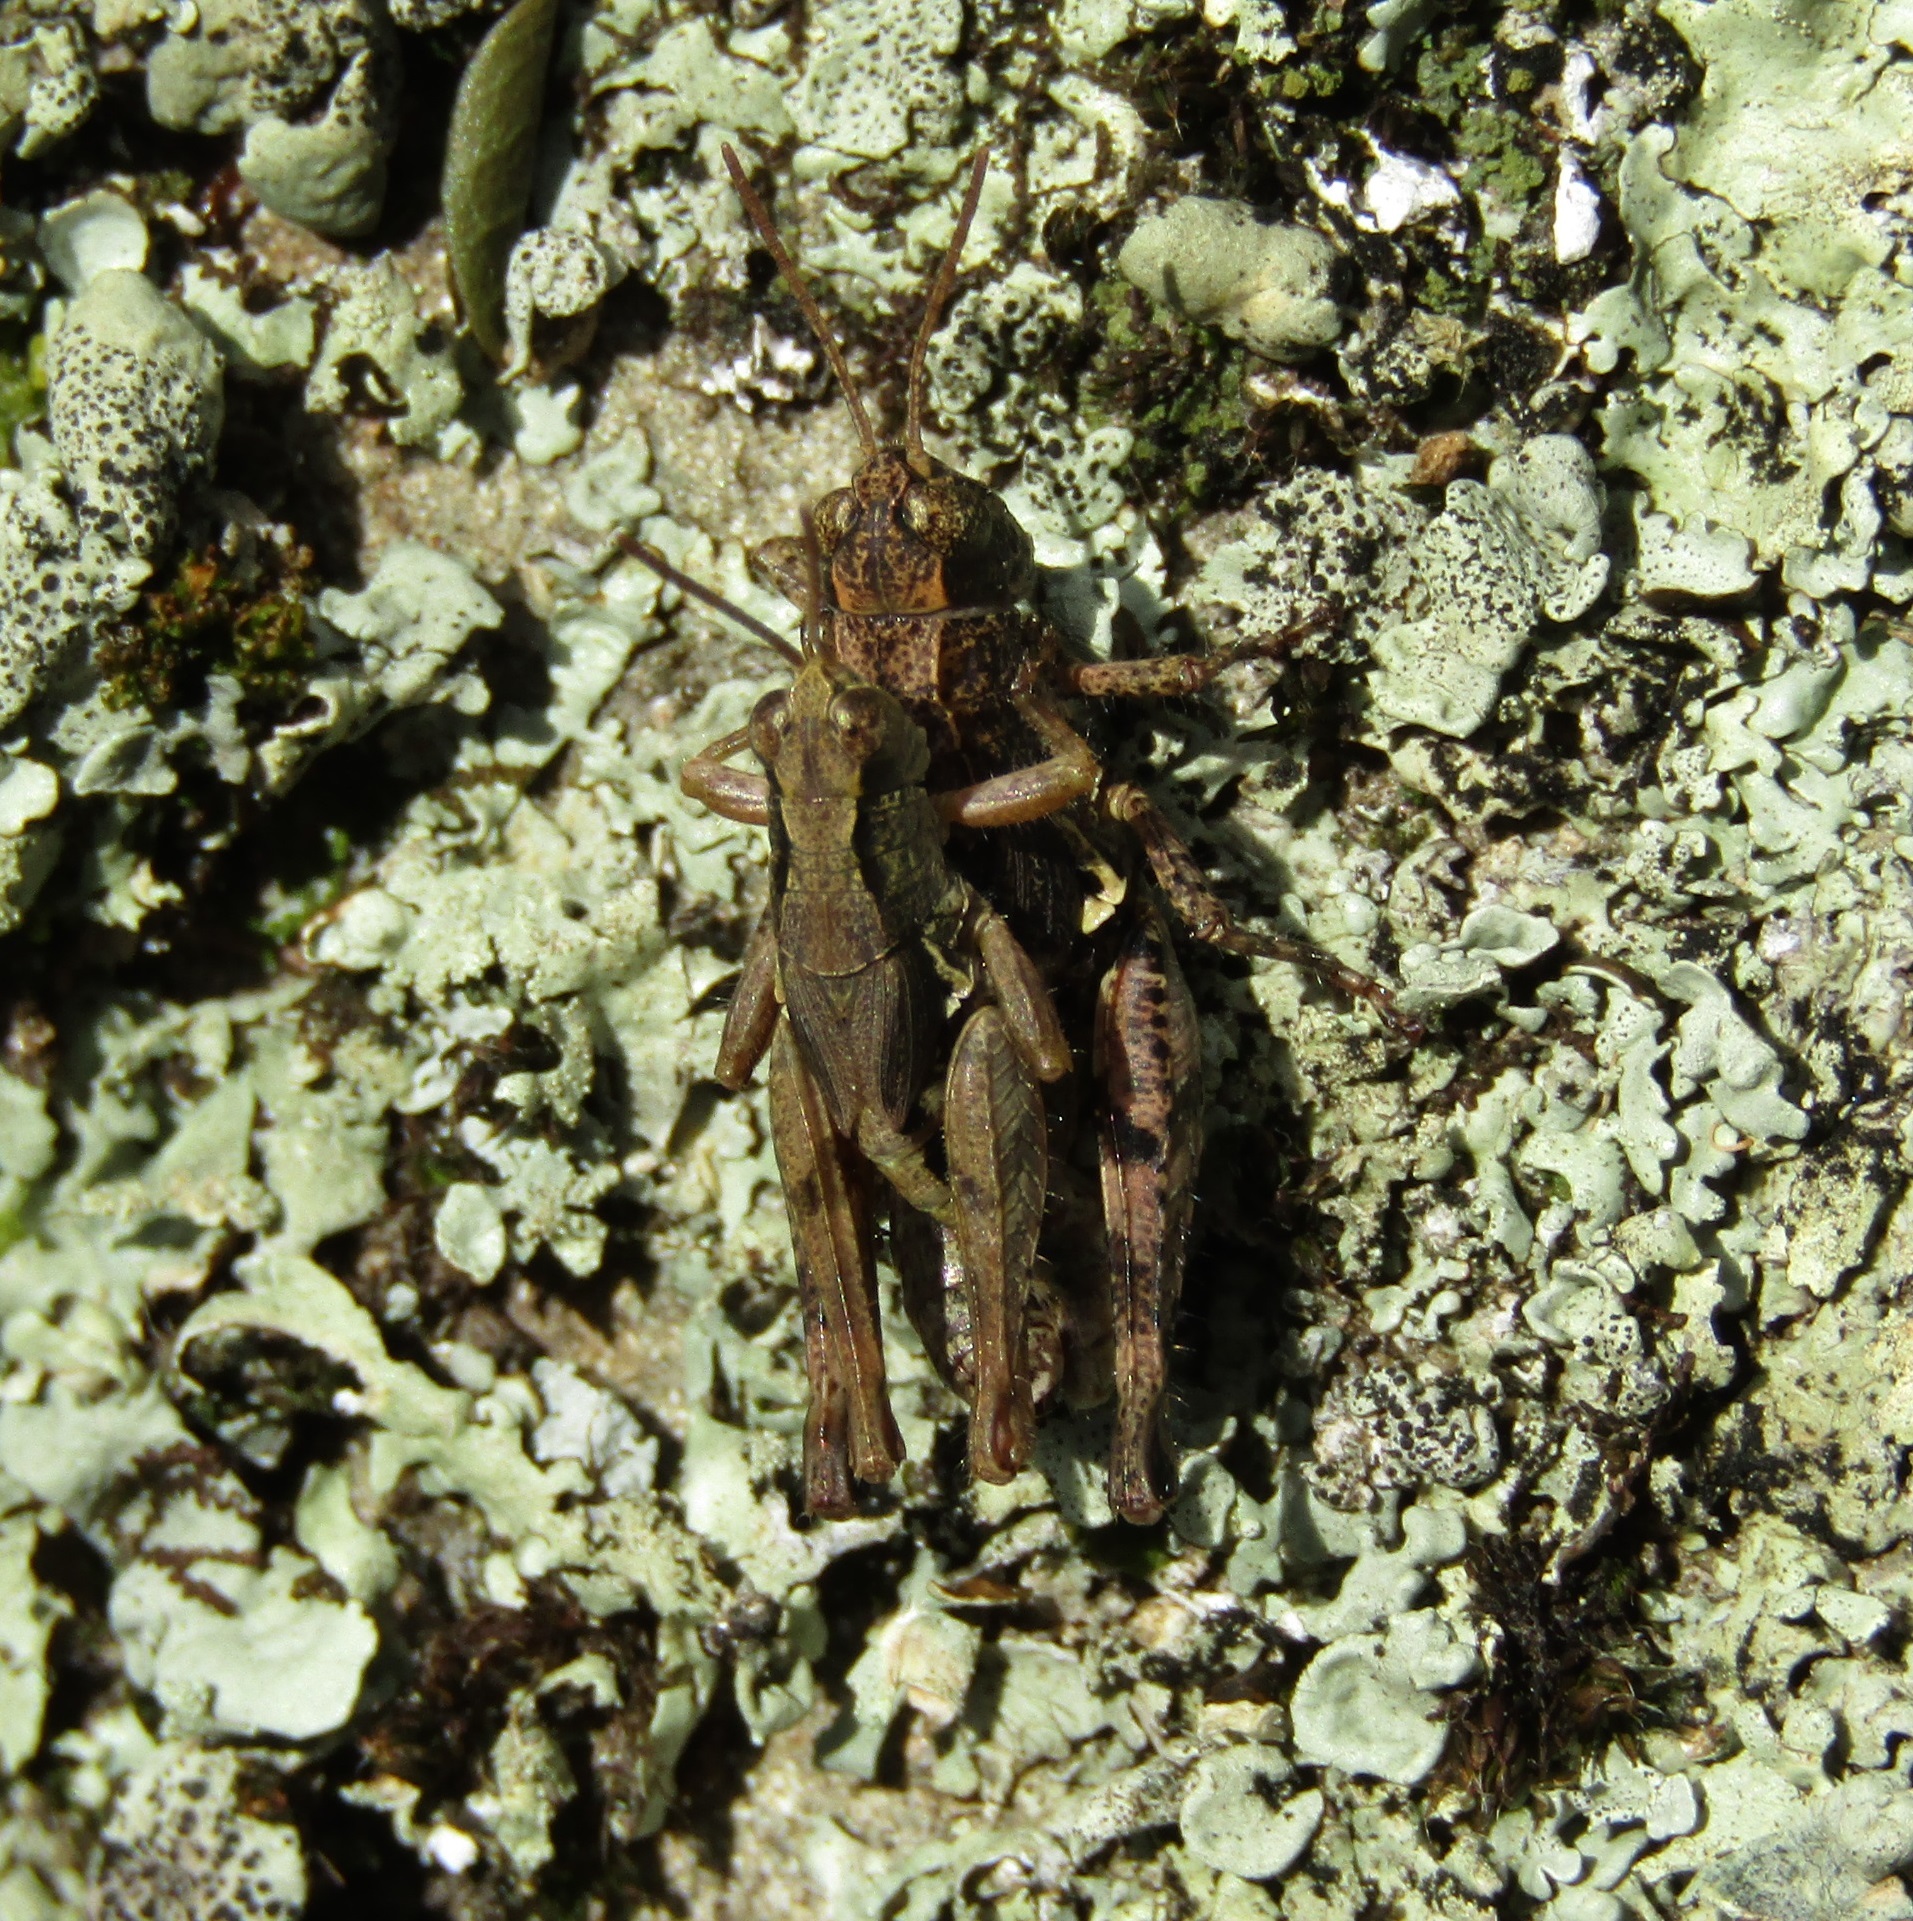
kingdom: Animalia
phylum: Arthropoda
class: Insecta
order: Orthoptera
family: Acrididae
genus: Phaulacridium
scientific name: Phaulacridium marginale
